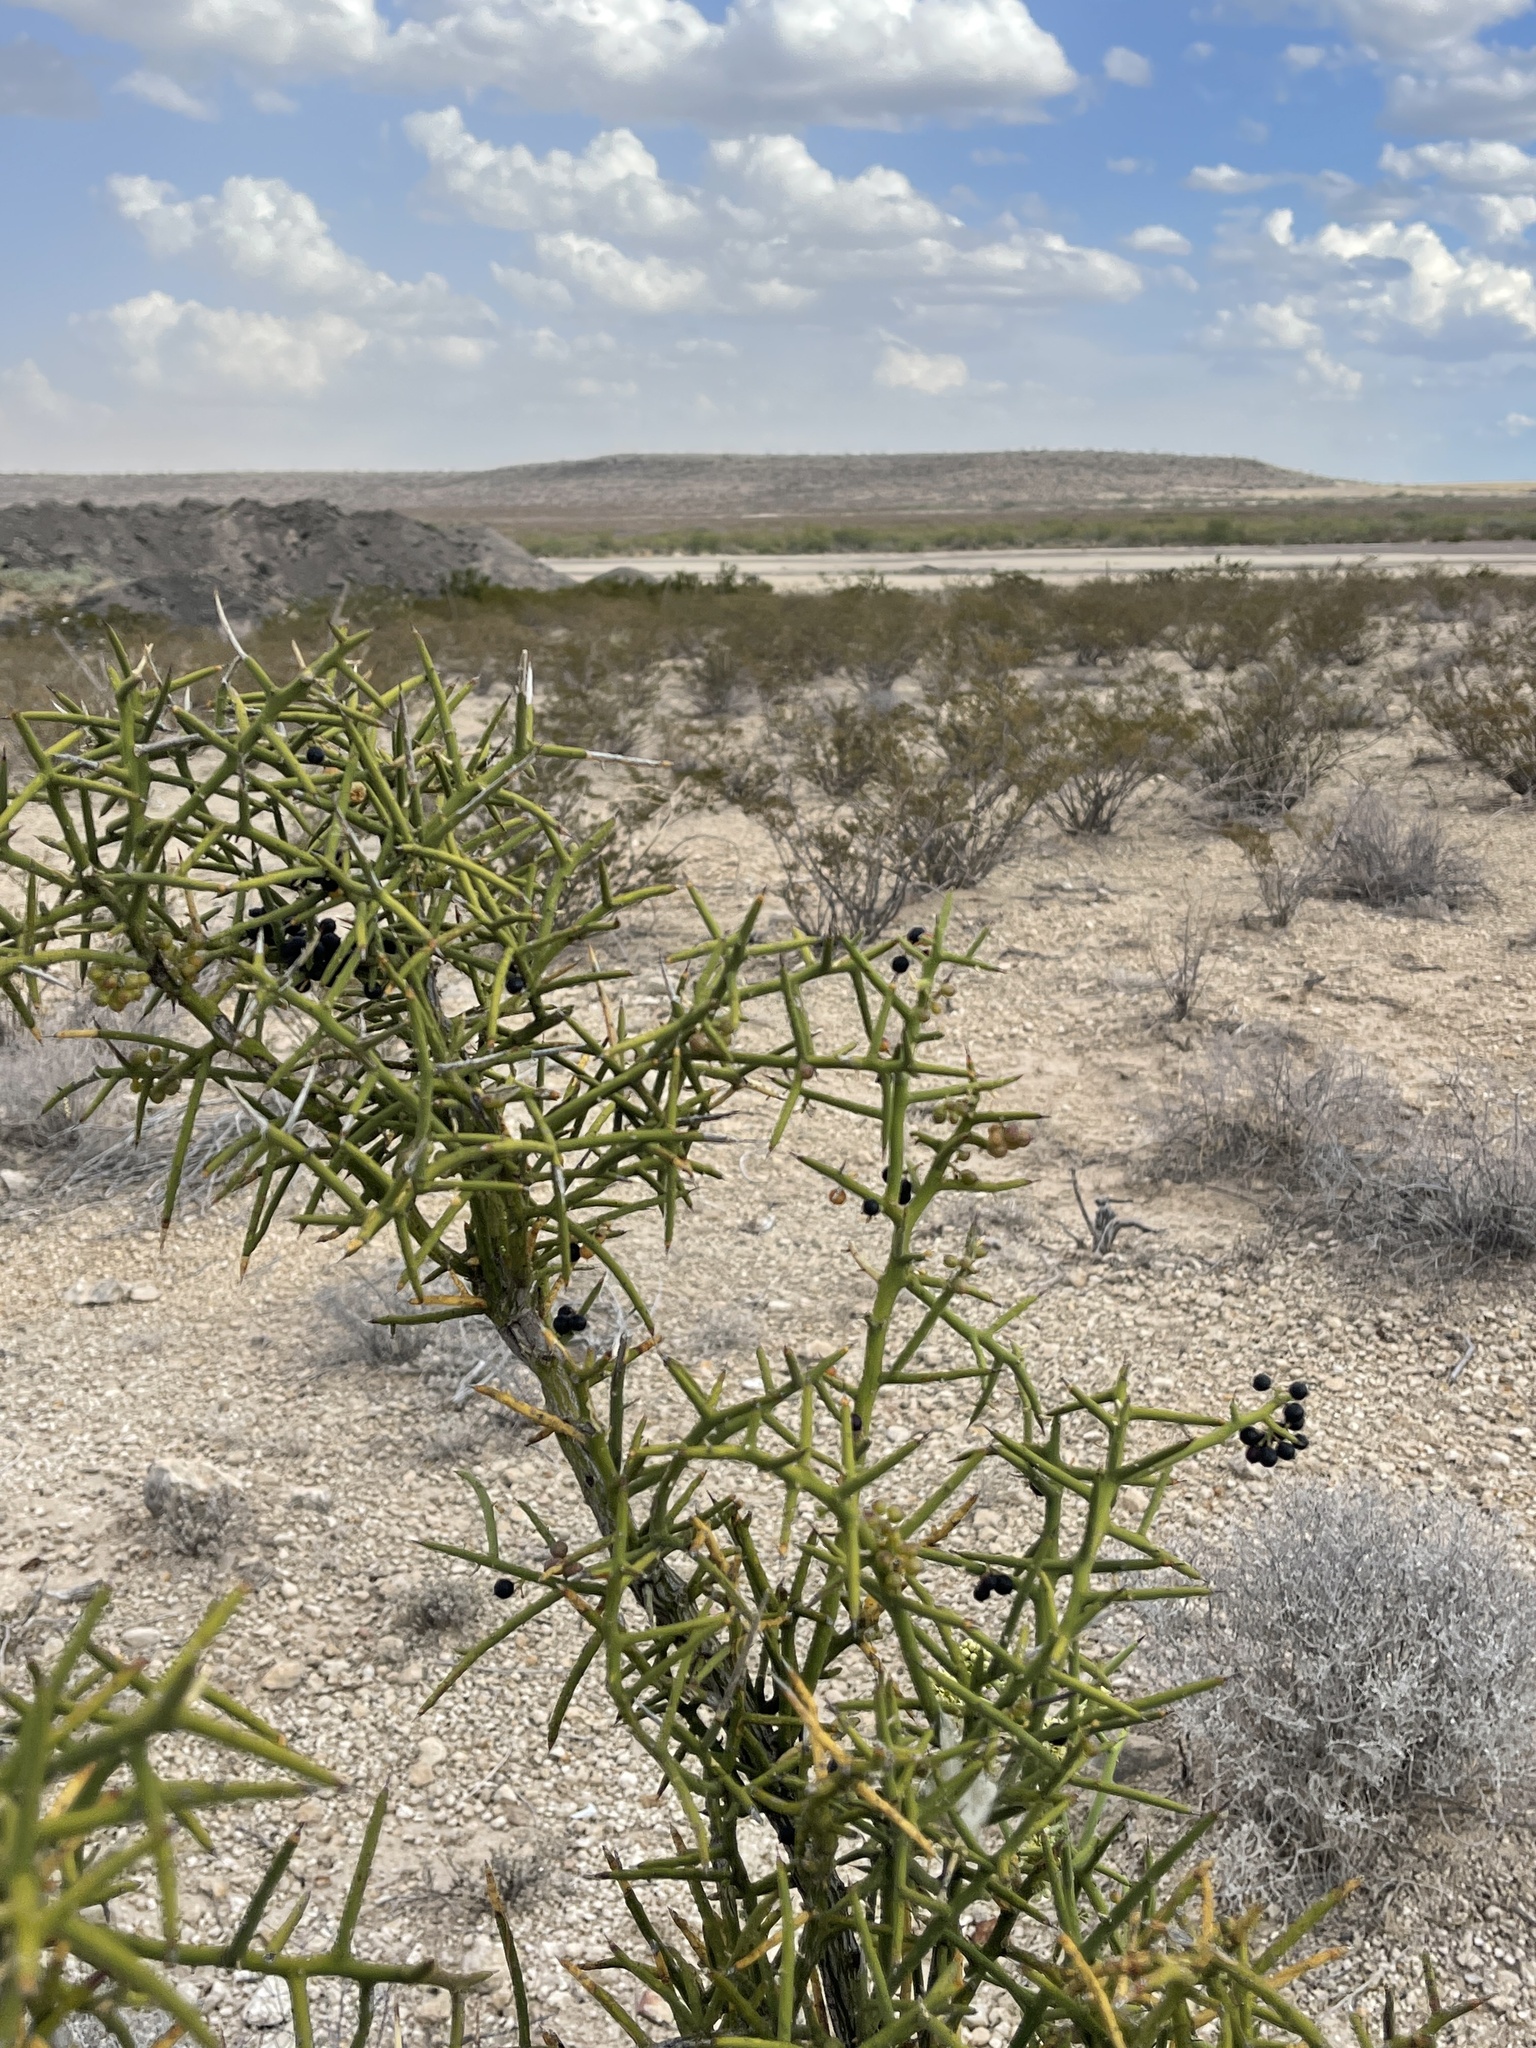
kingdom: Plantae
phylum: Tracheophyta
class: Magnoliopsida
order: Brassicales
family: Koeberliniaceae
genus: Koeberlinia
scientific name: Koeberlinia spinosa
